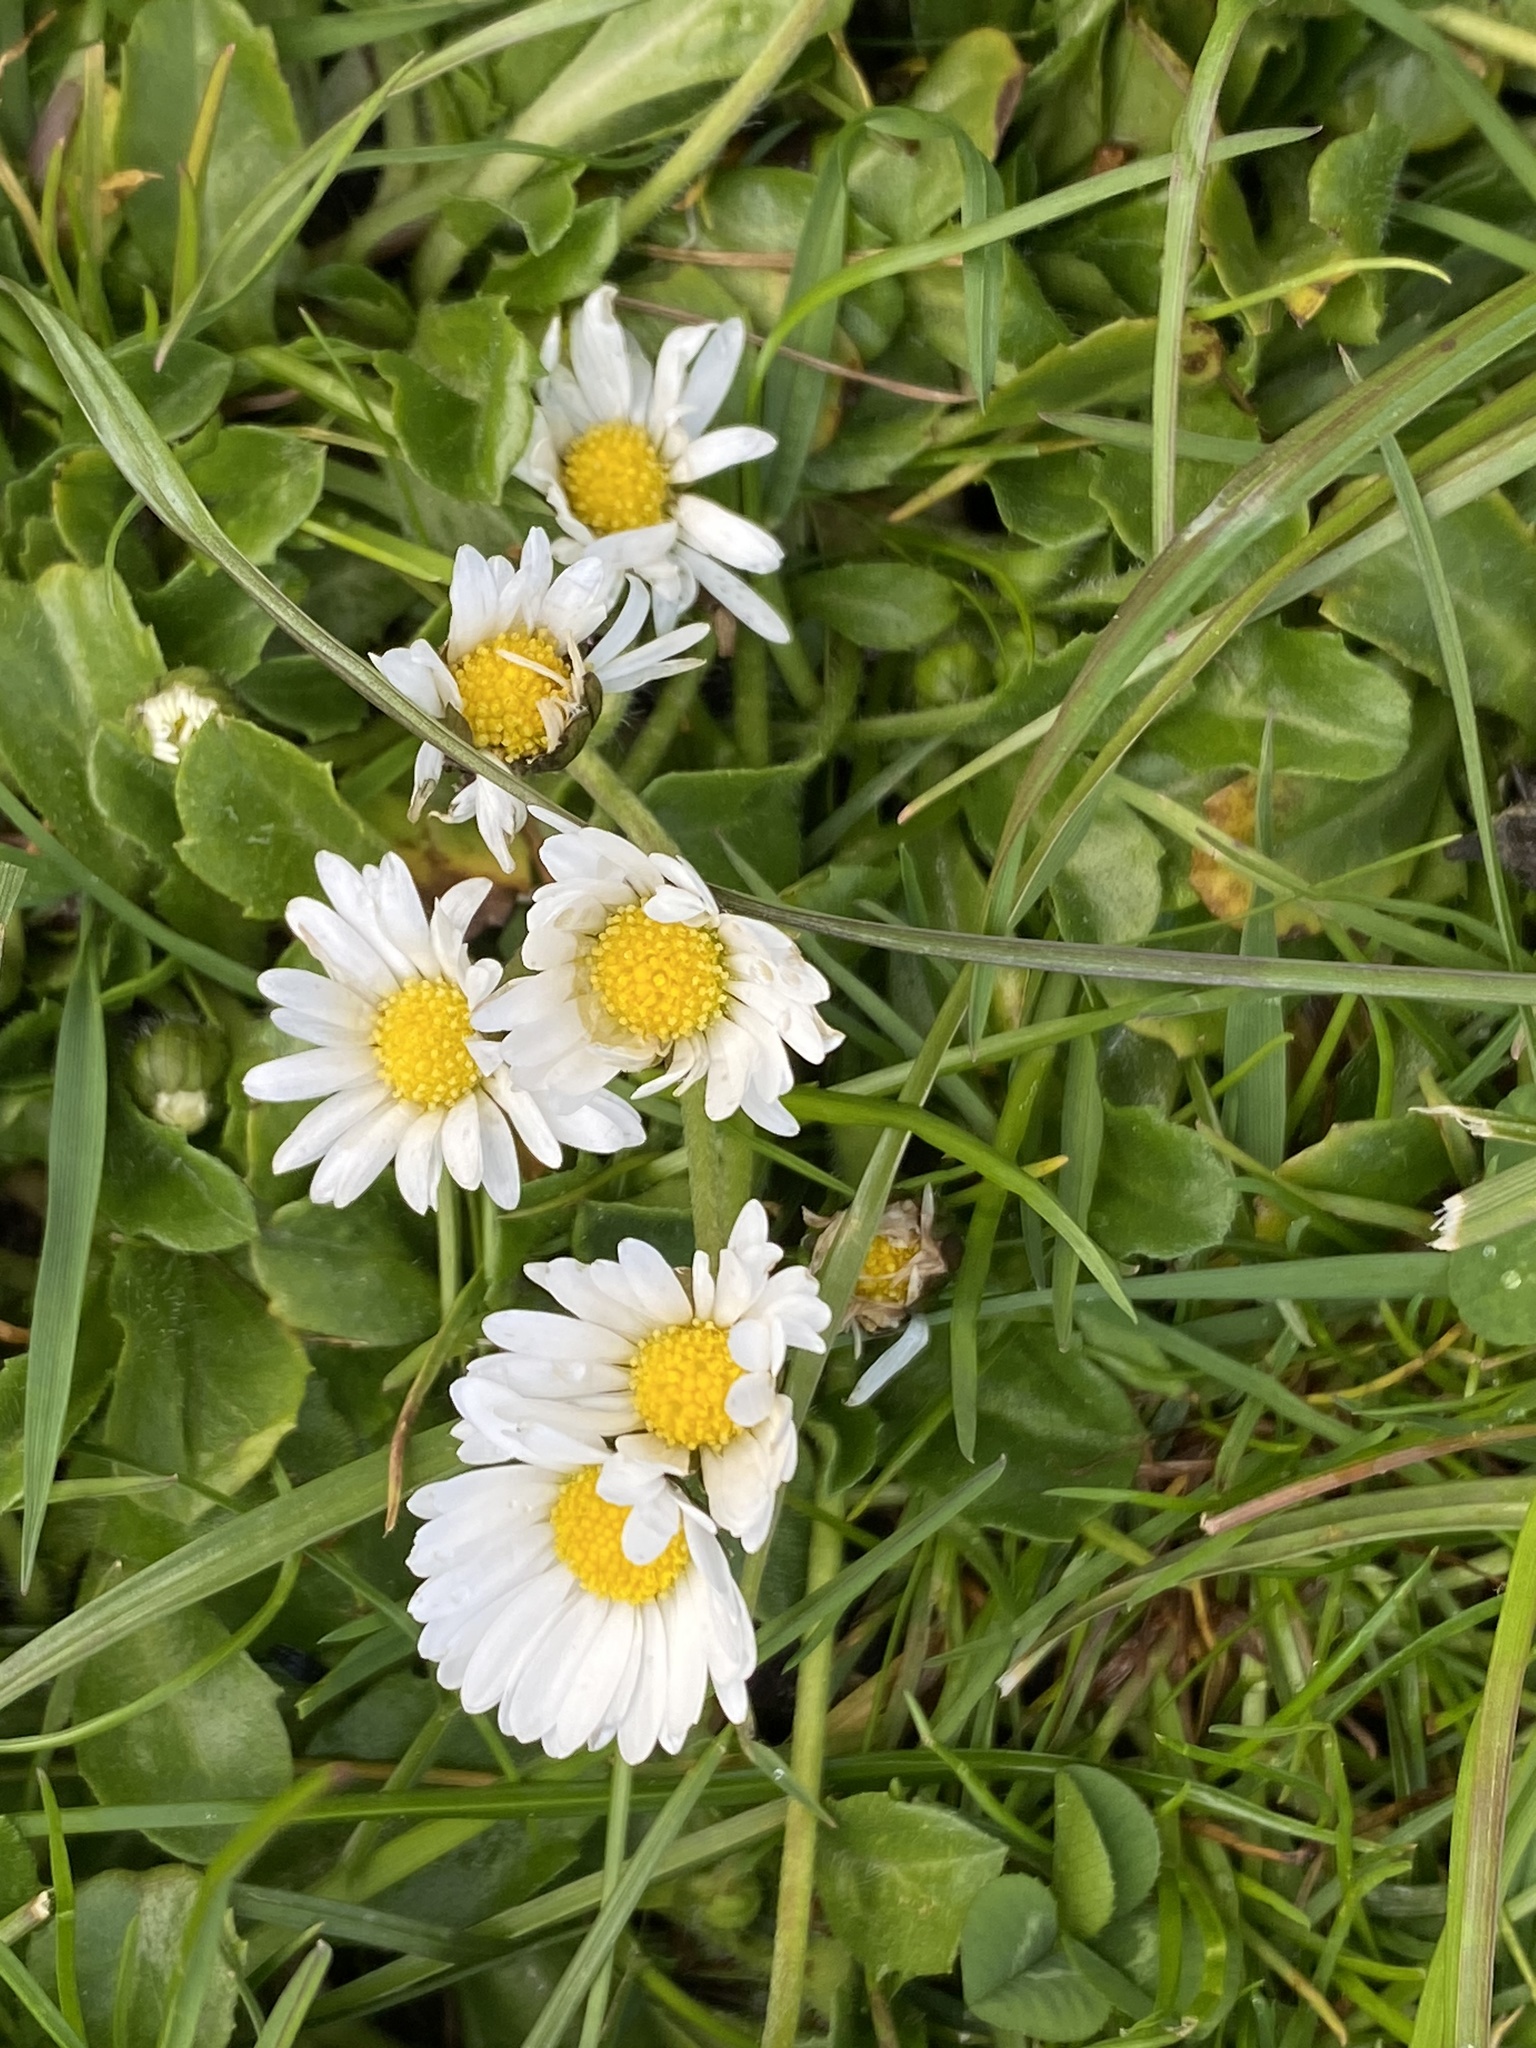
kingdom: Plantae
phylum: Tracheophyta
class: Magnoliopsida
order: Asterales
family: Asteraceae
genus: Bellis
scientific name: Bellis perennis
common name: Lawndaisy
